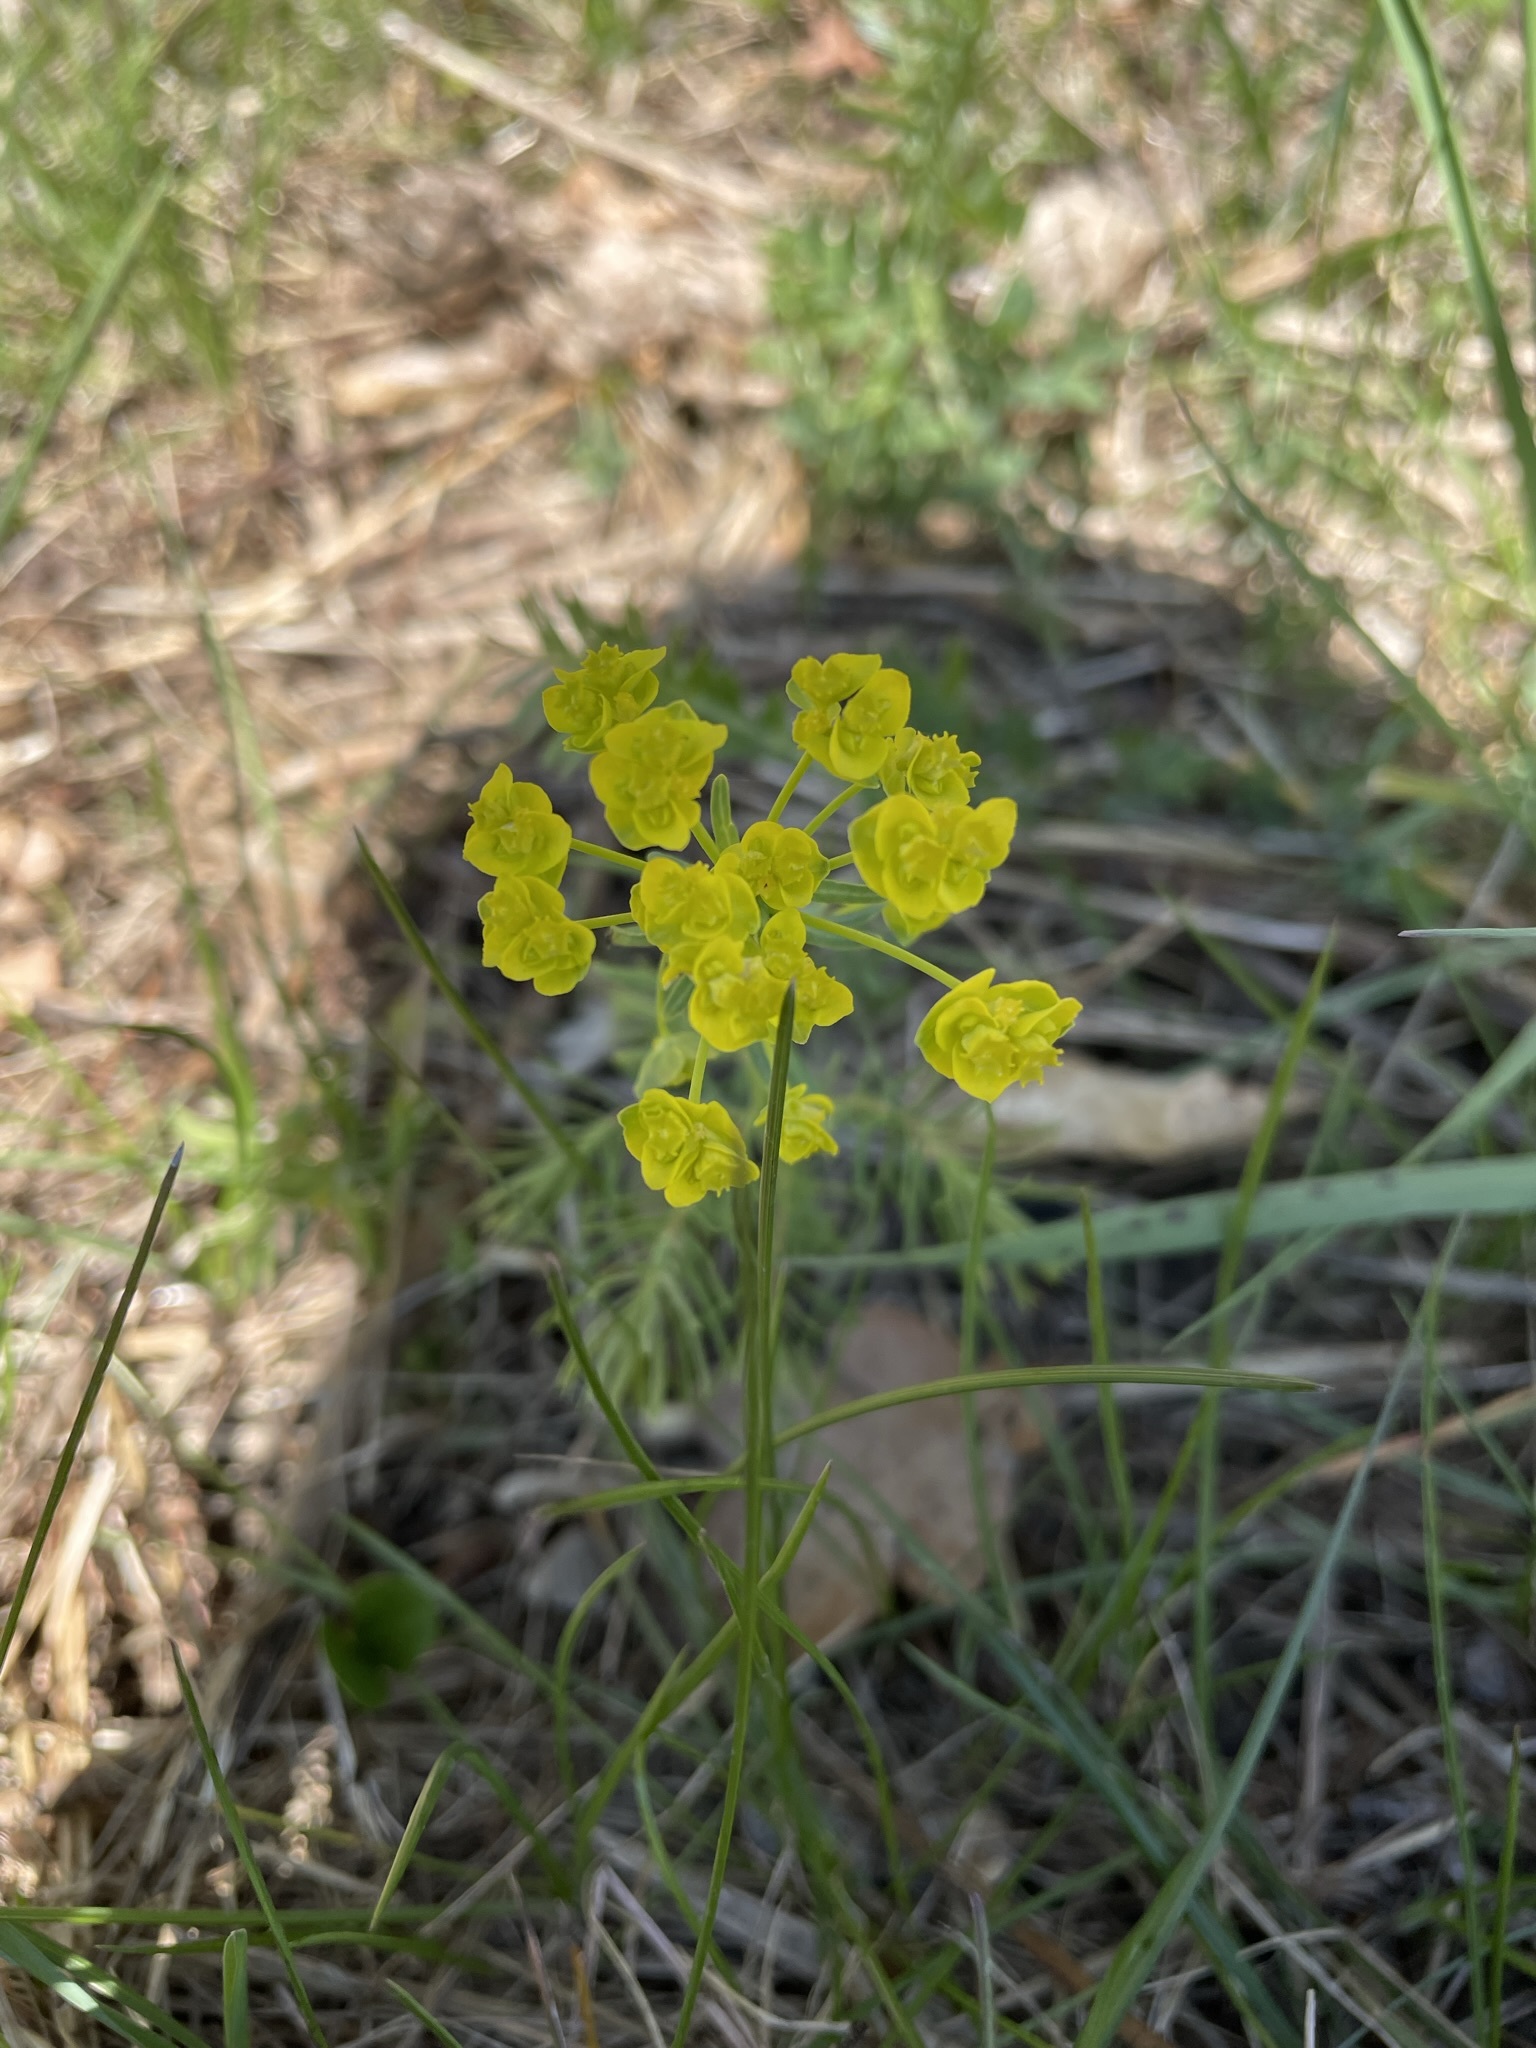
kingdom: Plantae
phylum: Tracheophyta
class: Magnoliopsida
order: Malpighiales
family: Euphorbiaceae
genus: Euphorbia
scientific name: Euphorbia cyparissias
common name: Cypress spurge
